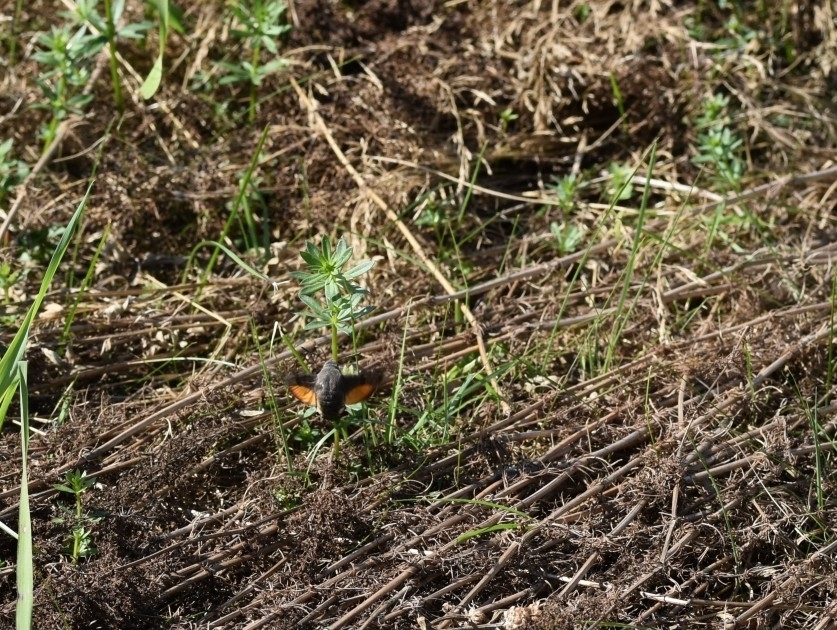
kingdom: Animalia
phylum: Arthropoda
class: Insecta
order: Lepidoptera
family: Sphingidae
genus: Macroglossum
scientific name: Macroglossum stellatarum
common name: Humming-bird hawk-moth
